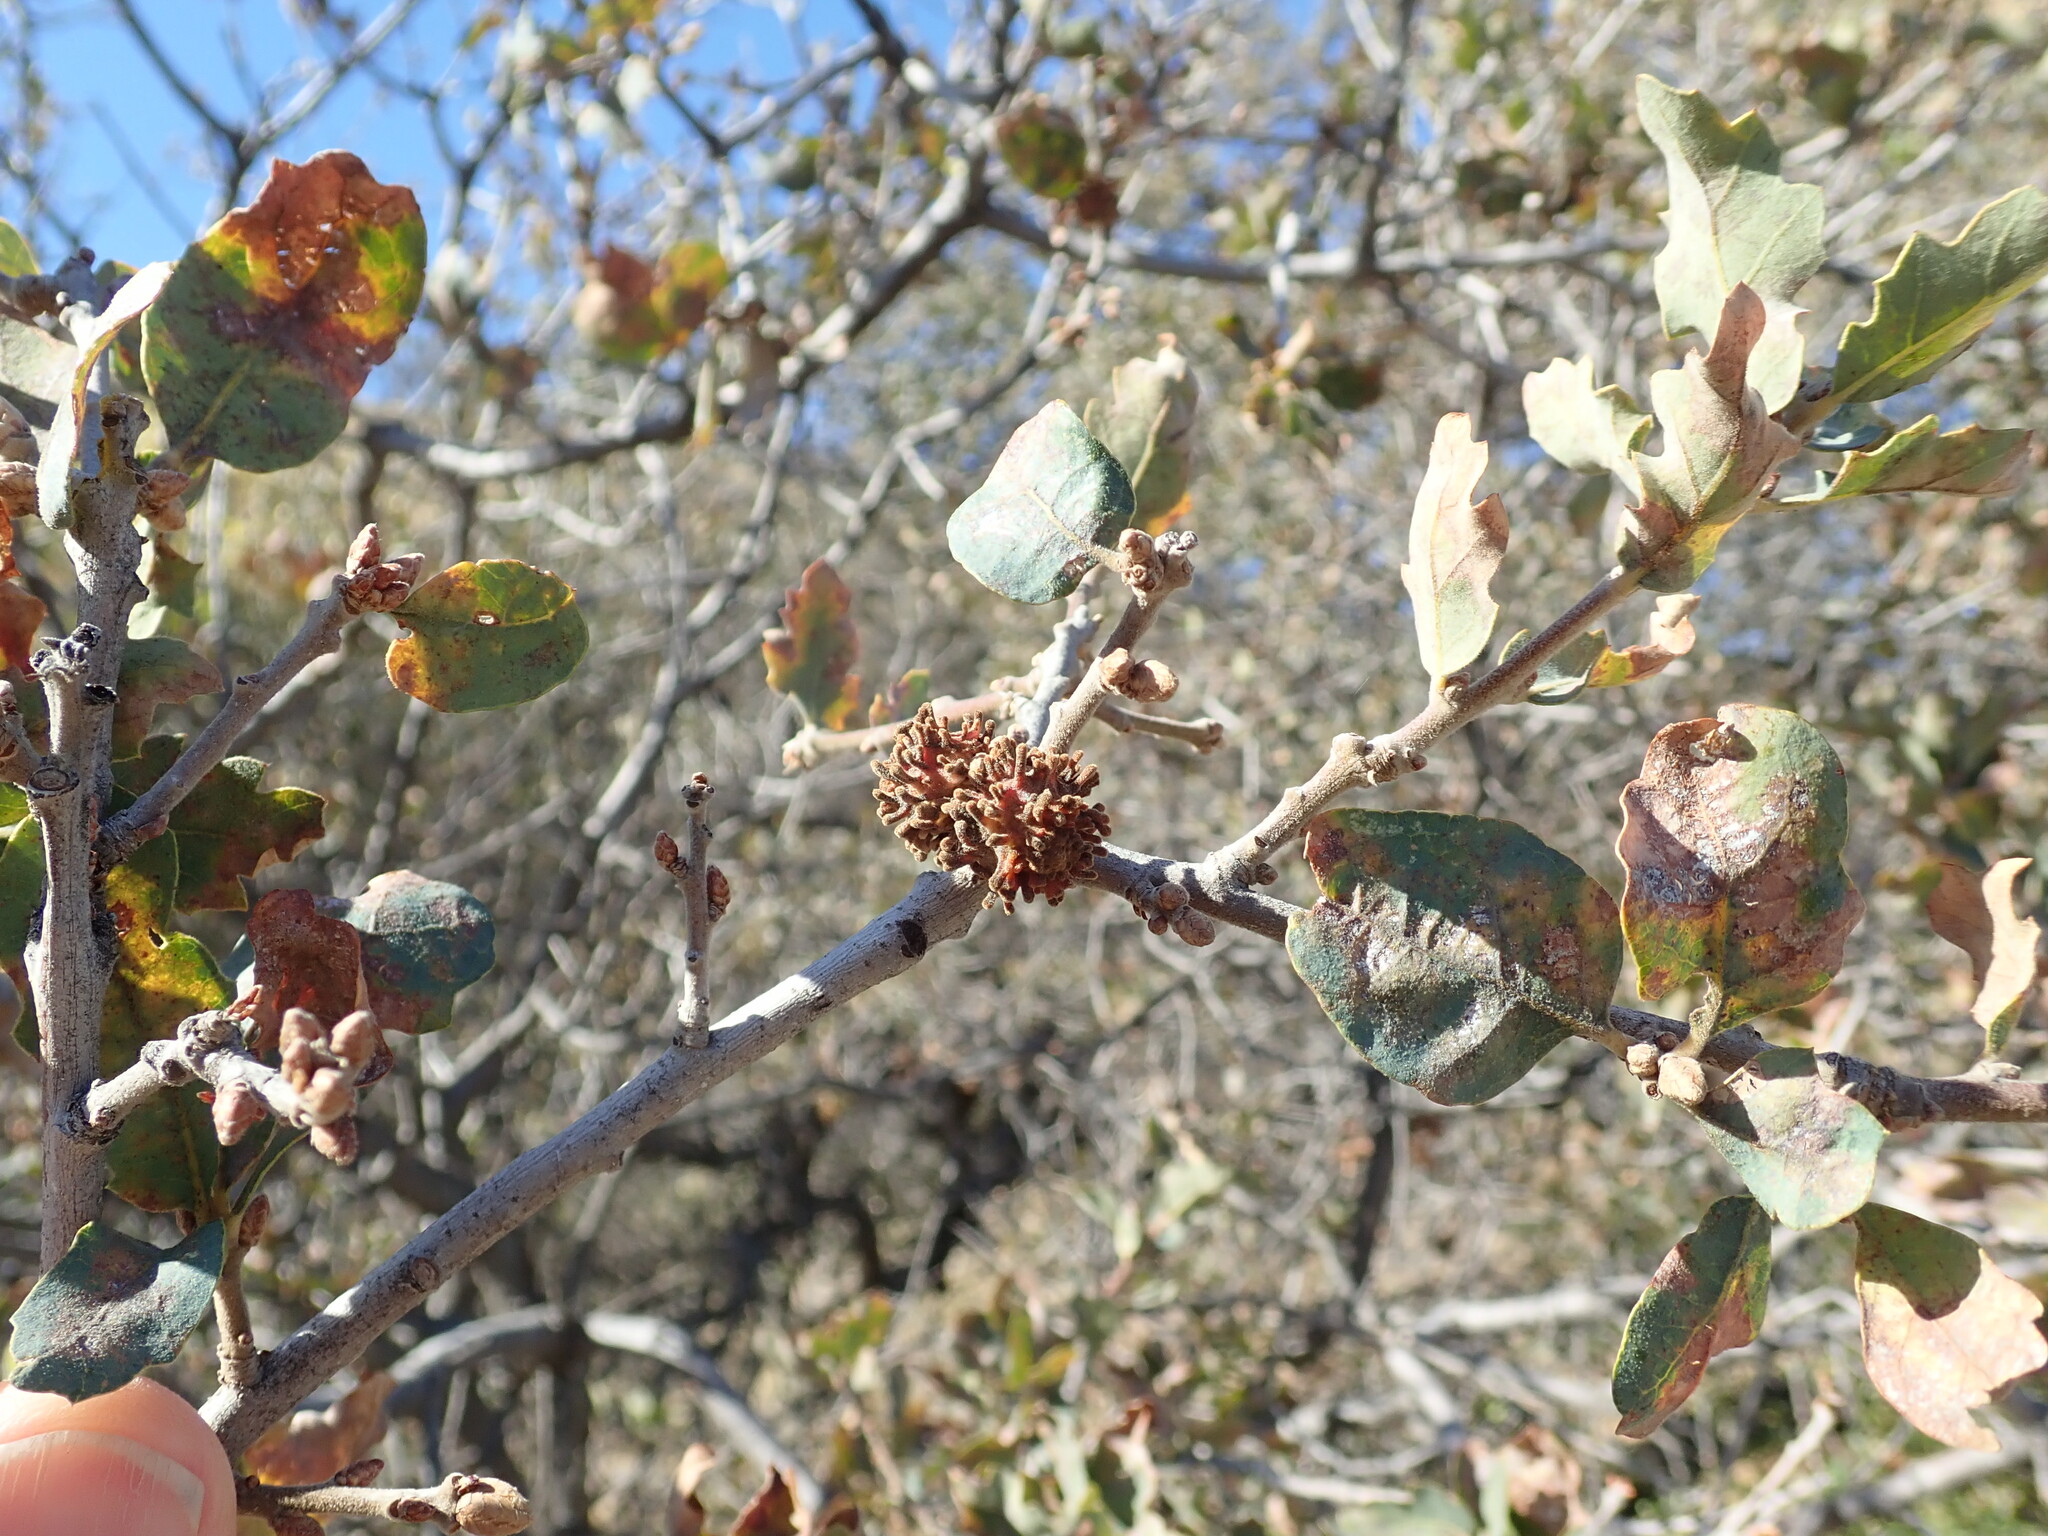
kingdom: Animalia
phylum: Arthropoda
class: Insecta
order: Hymenoptera
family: Cynipidae
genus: Burnettweldia
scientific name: Burnettweldia
